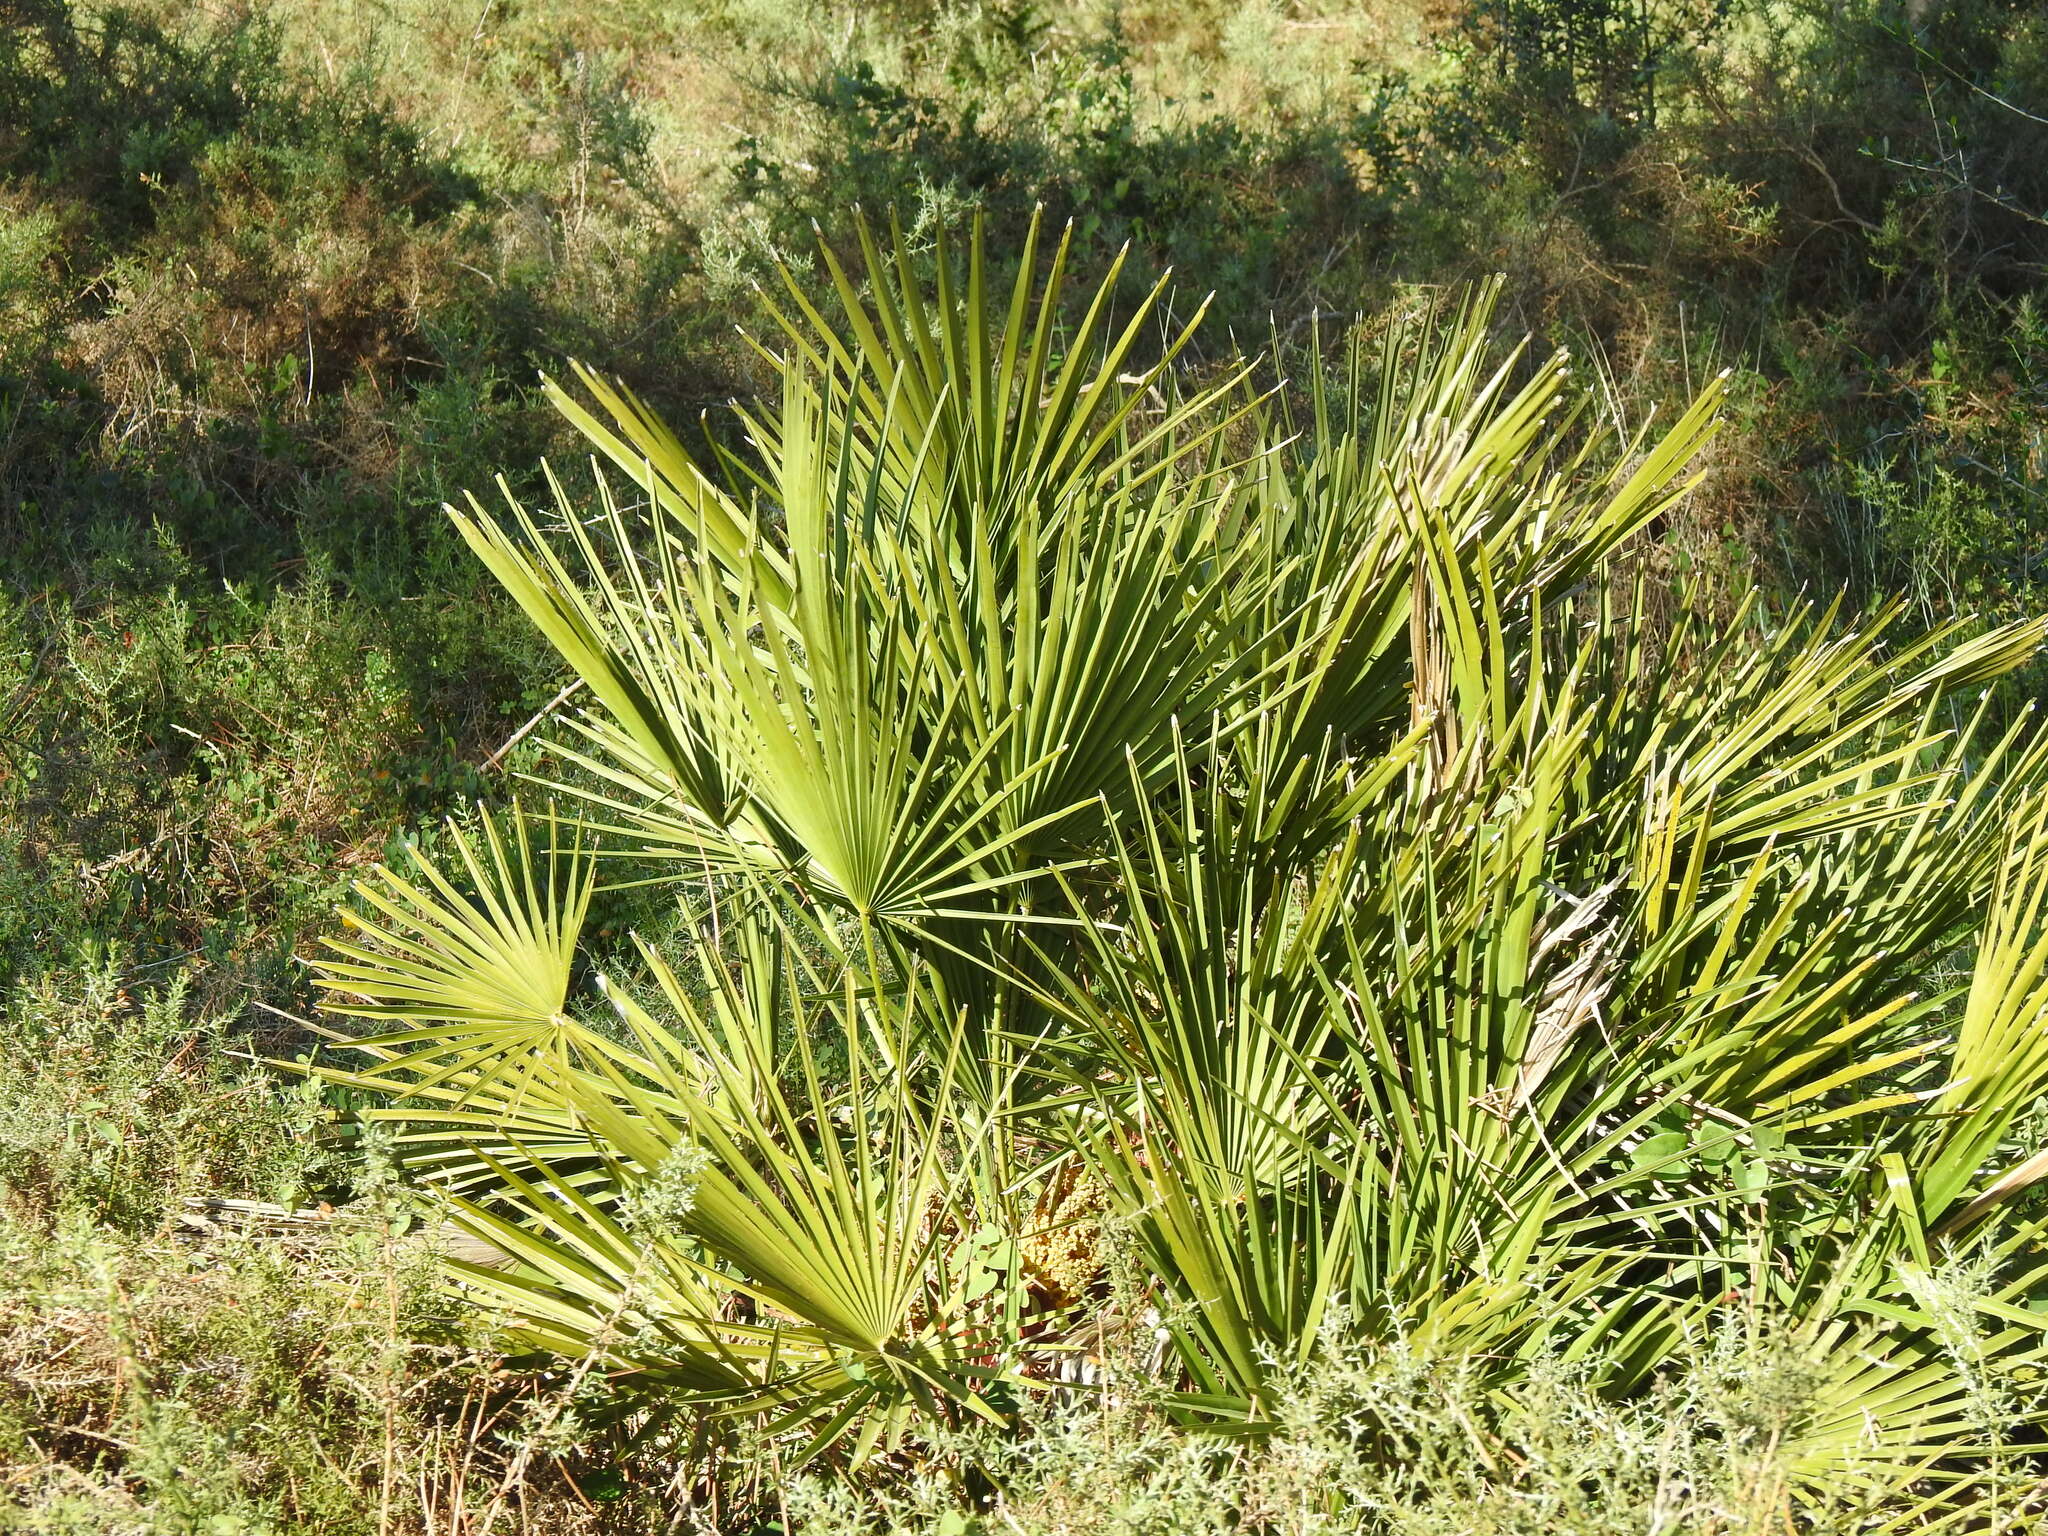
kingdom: Plantae
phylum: Tracheophyta
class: Liliopsida
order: Arecales
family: Arecaceae
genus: Chamaerops
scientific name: Chamaerops humilis
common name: Dwarf fan palm
